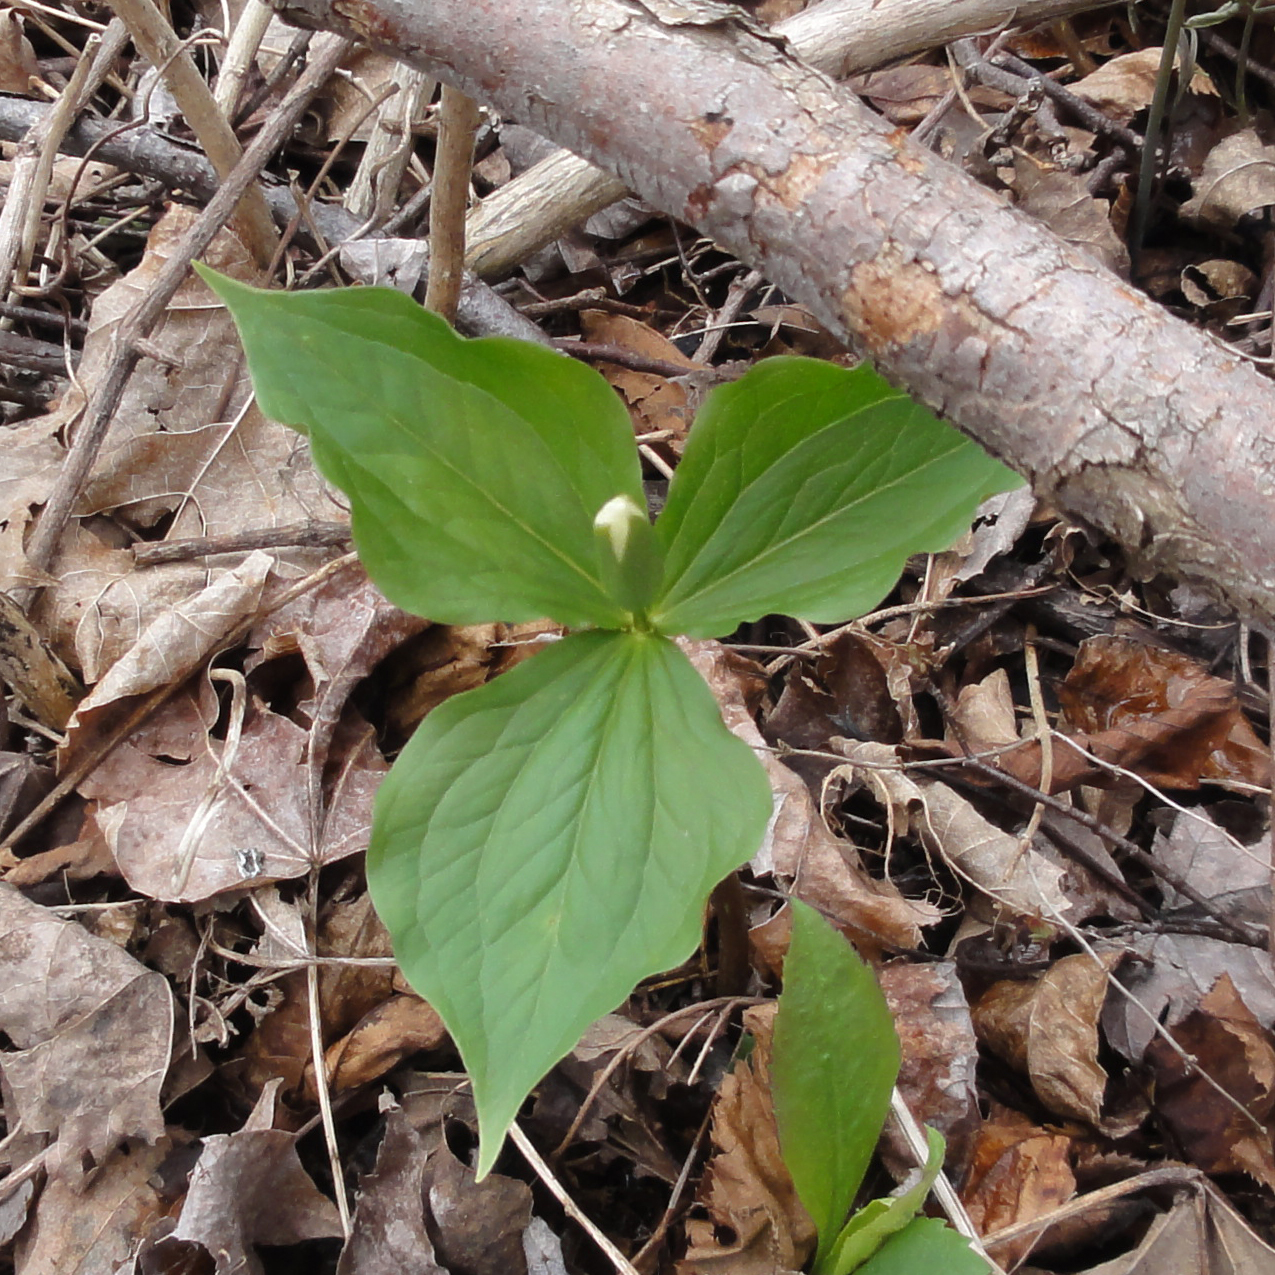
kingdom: Plantae
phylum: Tracheophyta
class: Liliopsida
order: Liliales
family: Melanthiaceae
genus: Trillium
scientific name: Trillium grandiflorum
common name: Great white trillium
